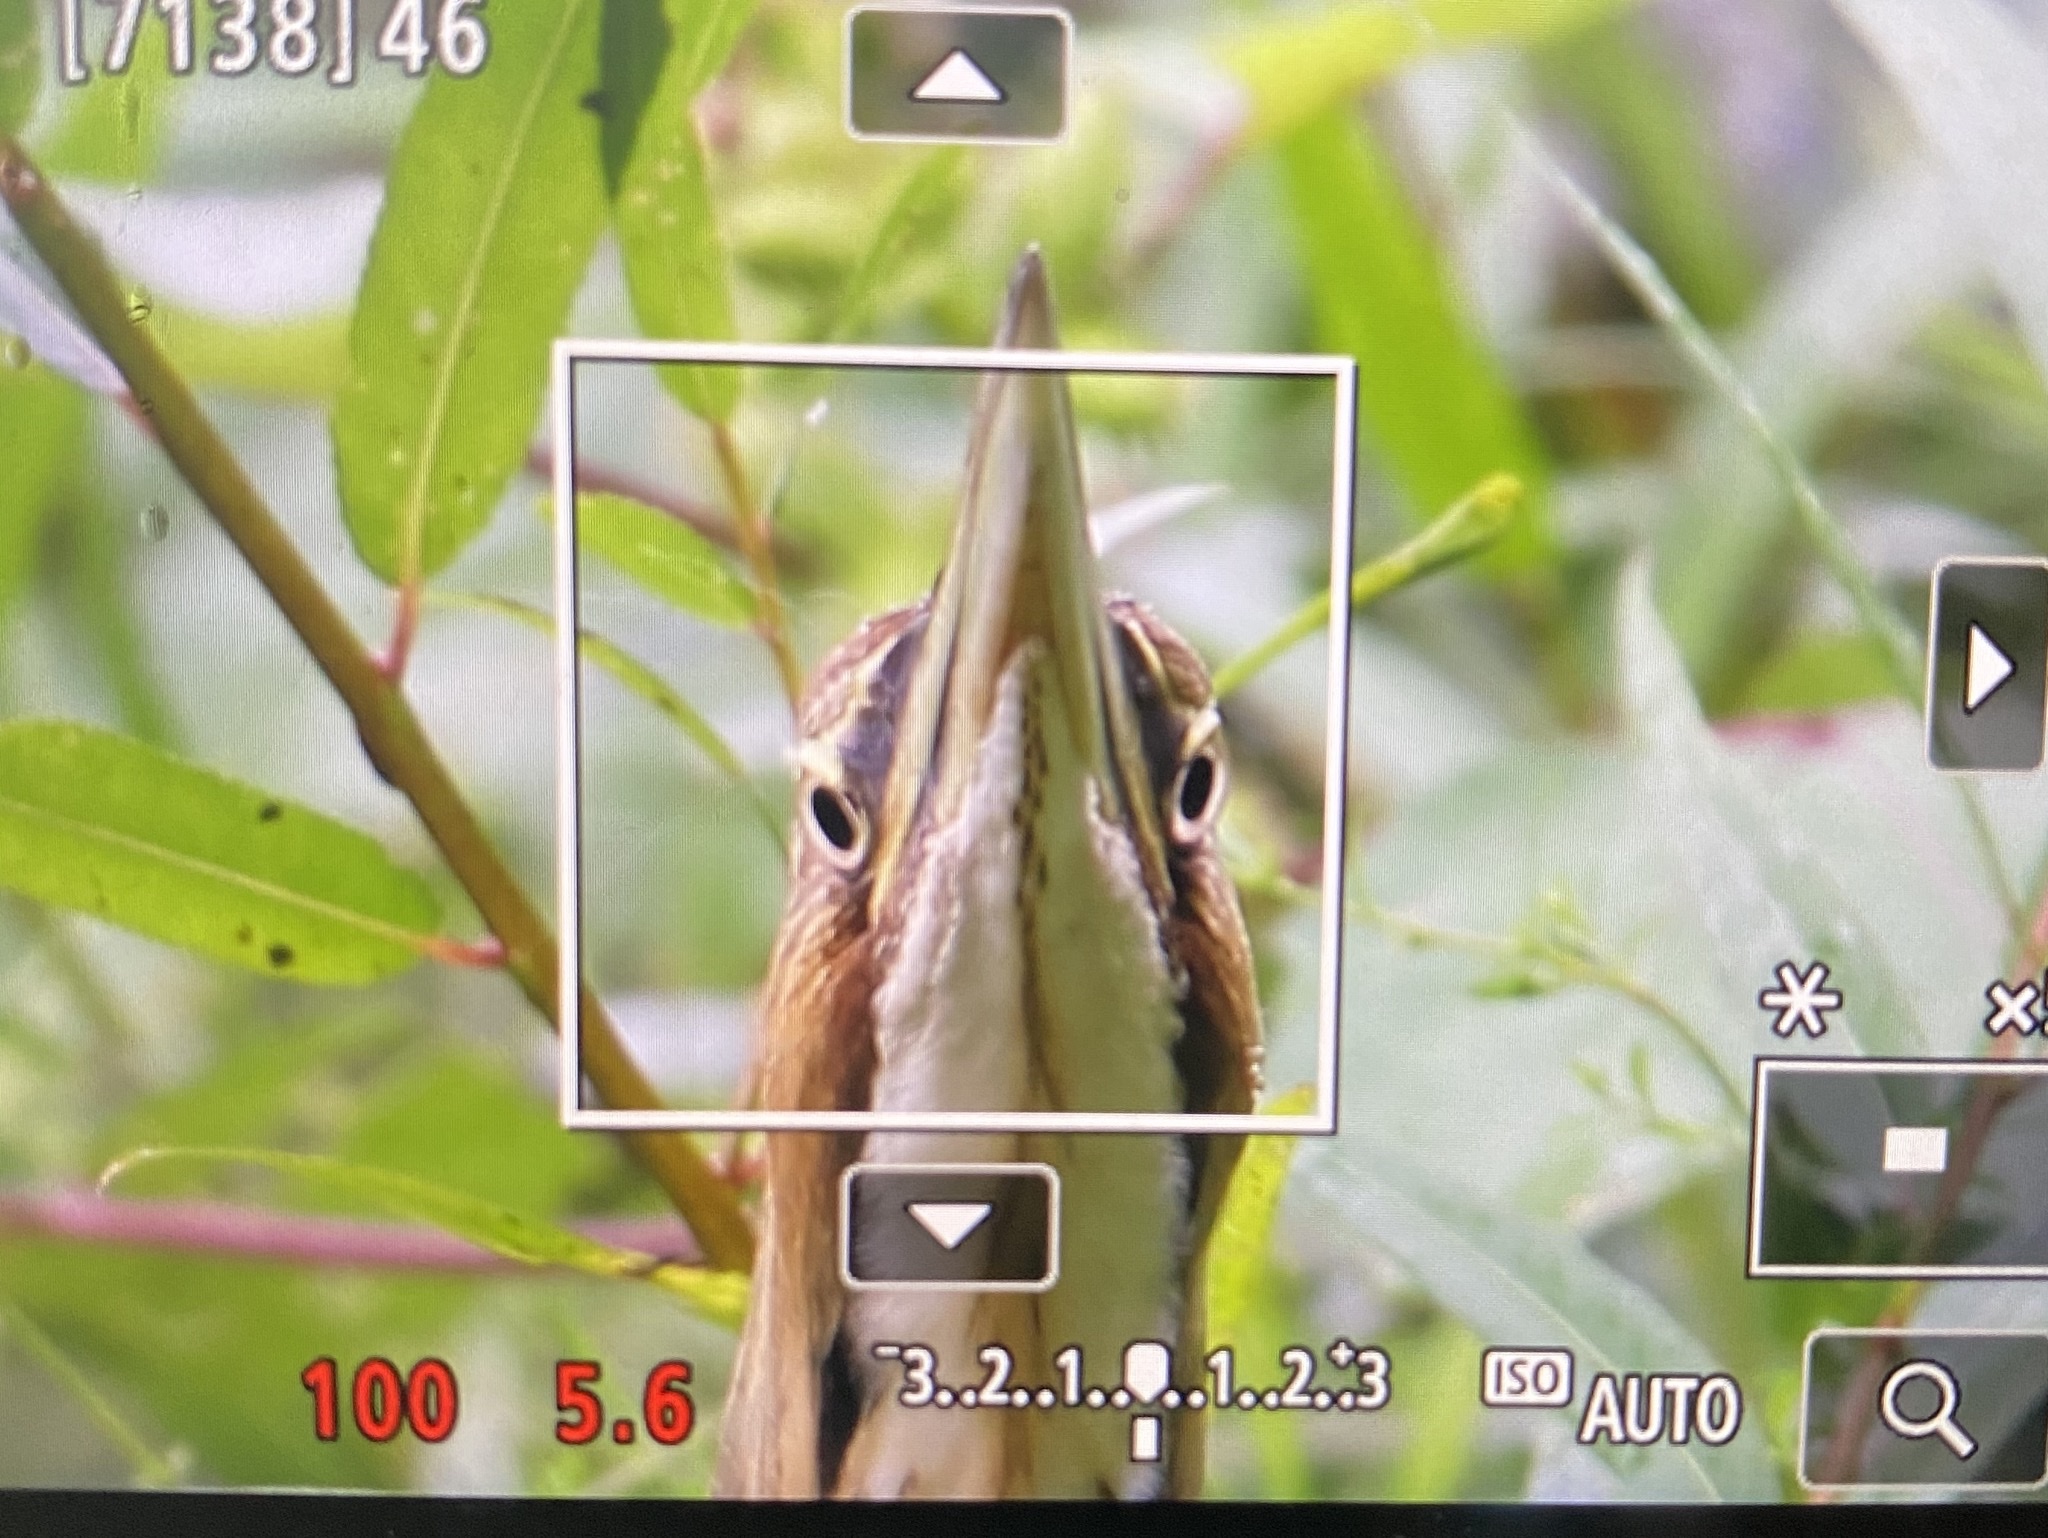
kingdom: Animalia
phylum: Chordata
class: Aves
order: Pelecaniformes
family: Ardeidae
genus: Botaurus
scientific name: Botaurus lentiginosus
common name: American bittern
